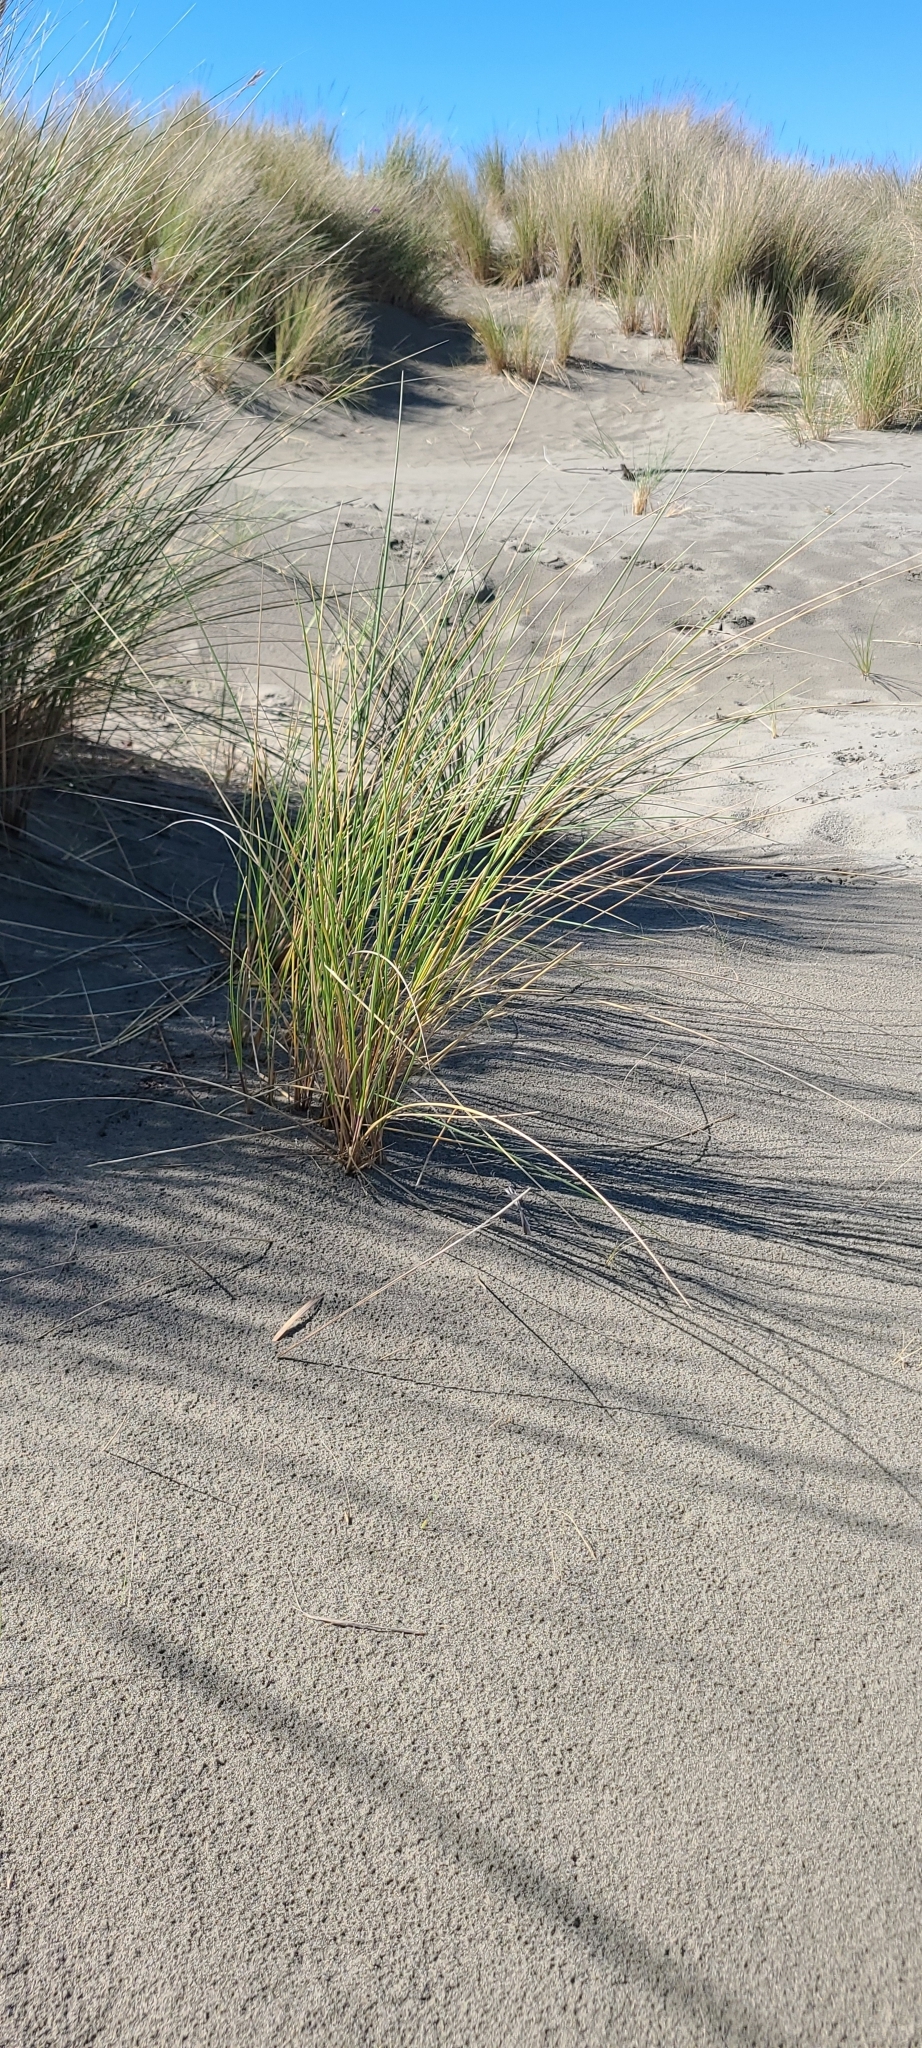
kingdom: Plantae
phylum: Tracheophyta
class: Liliopsida
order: Poales
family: Poaceae
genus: Calamagrostis
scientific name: Calamagrostis arenaria
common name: European beachgrass
